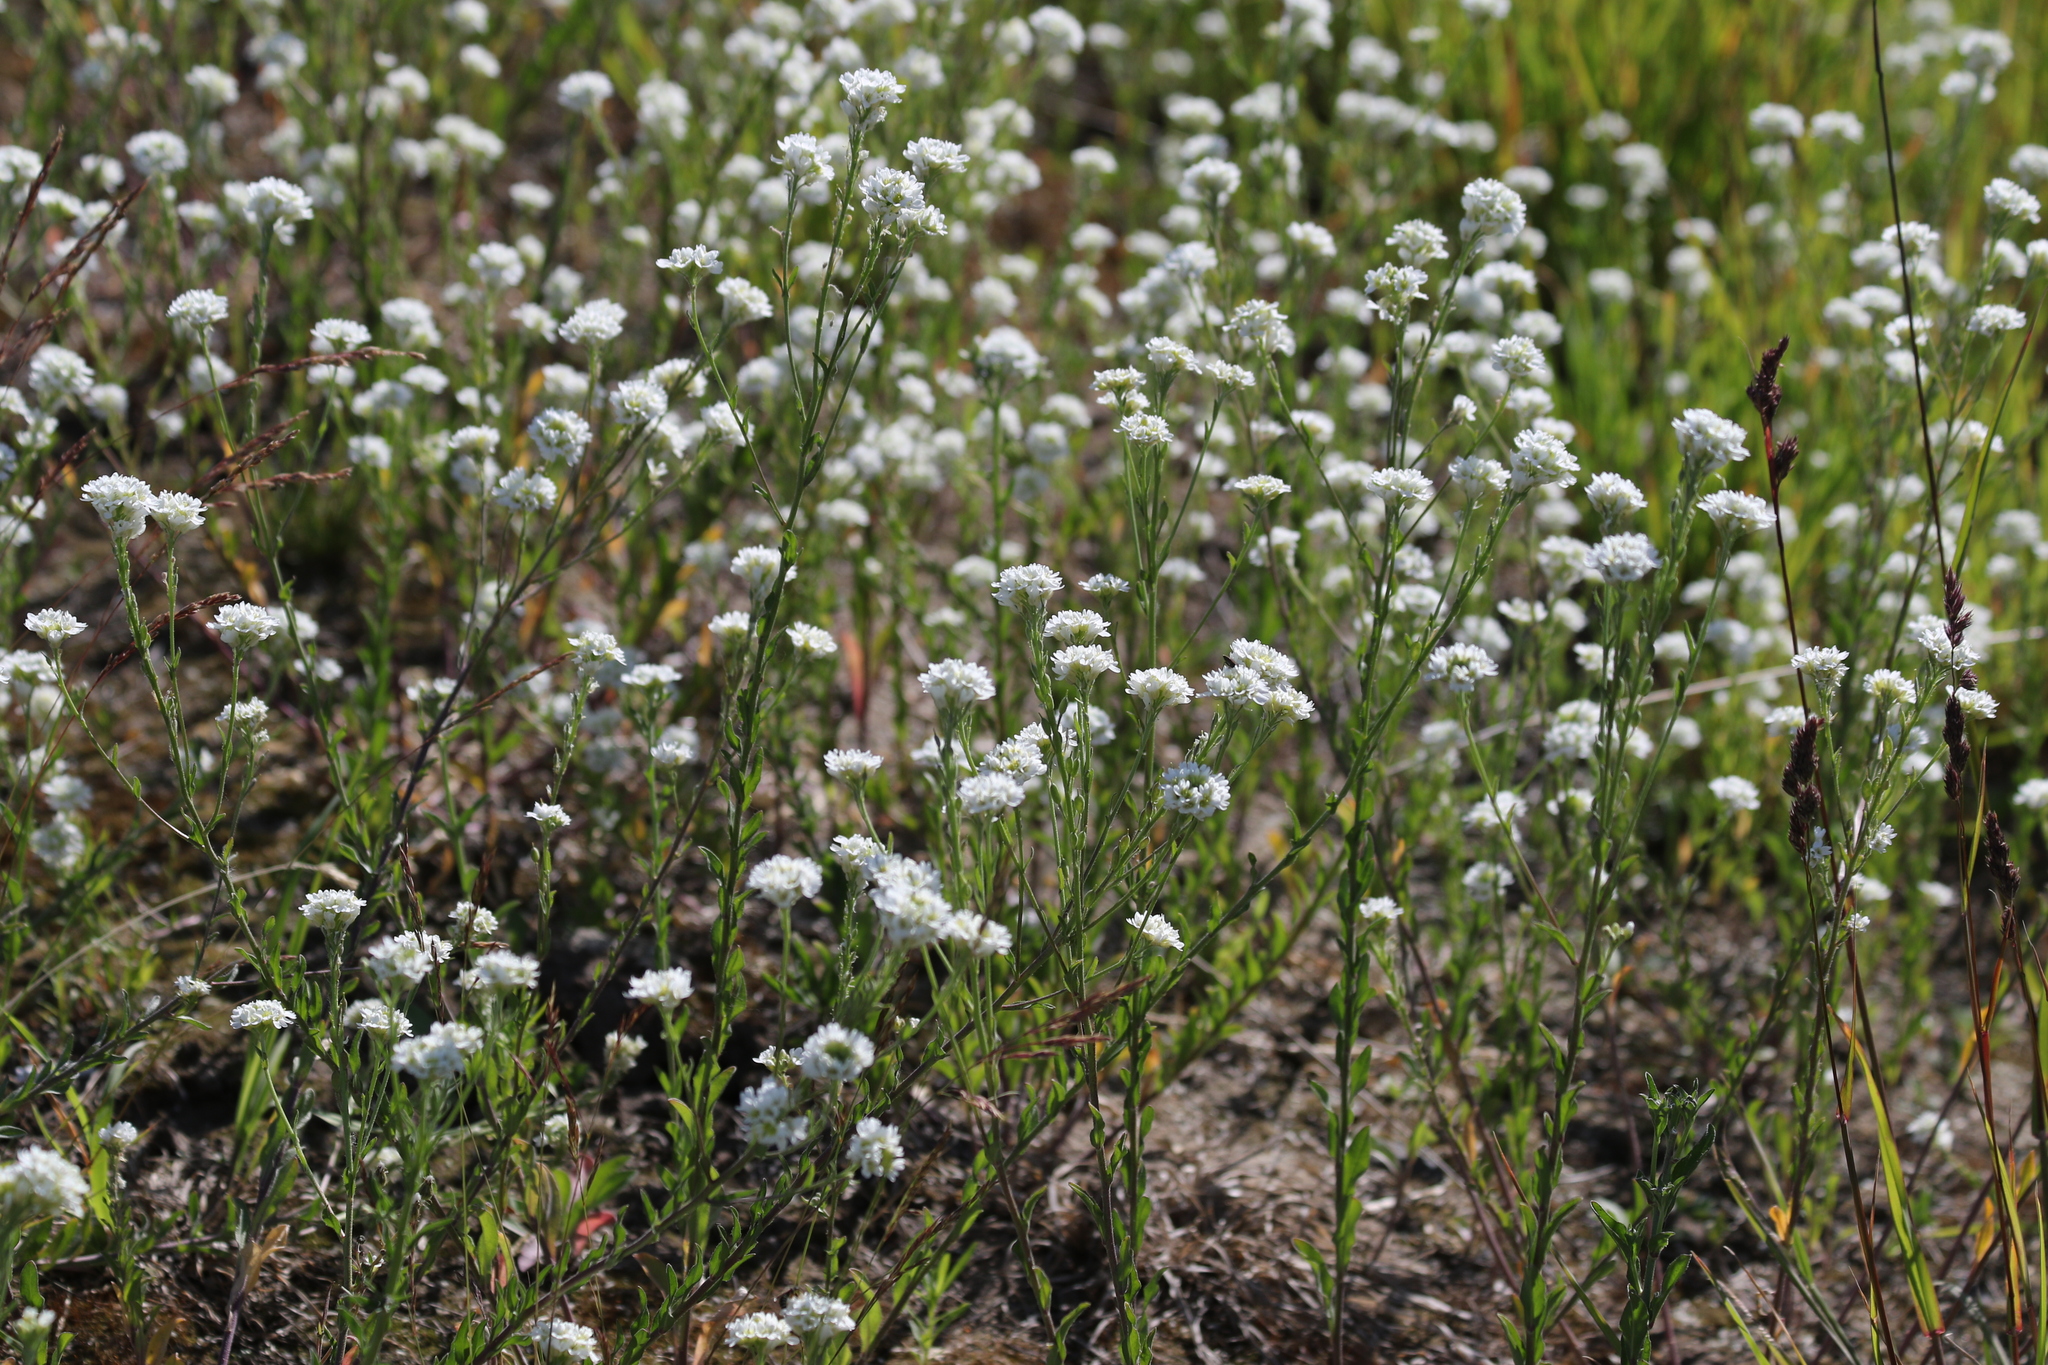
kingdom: Plantae
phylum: Tracheophyta
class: Magnoliopsida
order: Brassicales
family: Brassicaceae
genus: Berteroa
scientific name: Berteroa incana
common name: Hoary alison
